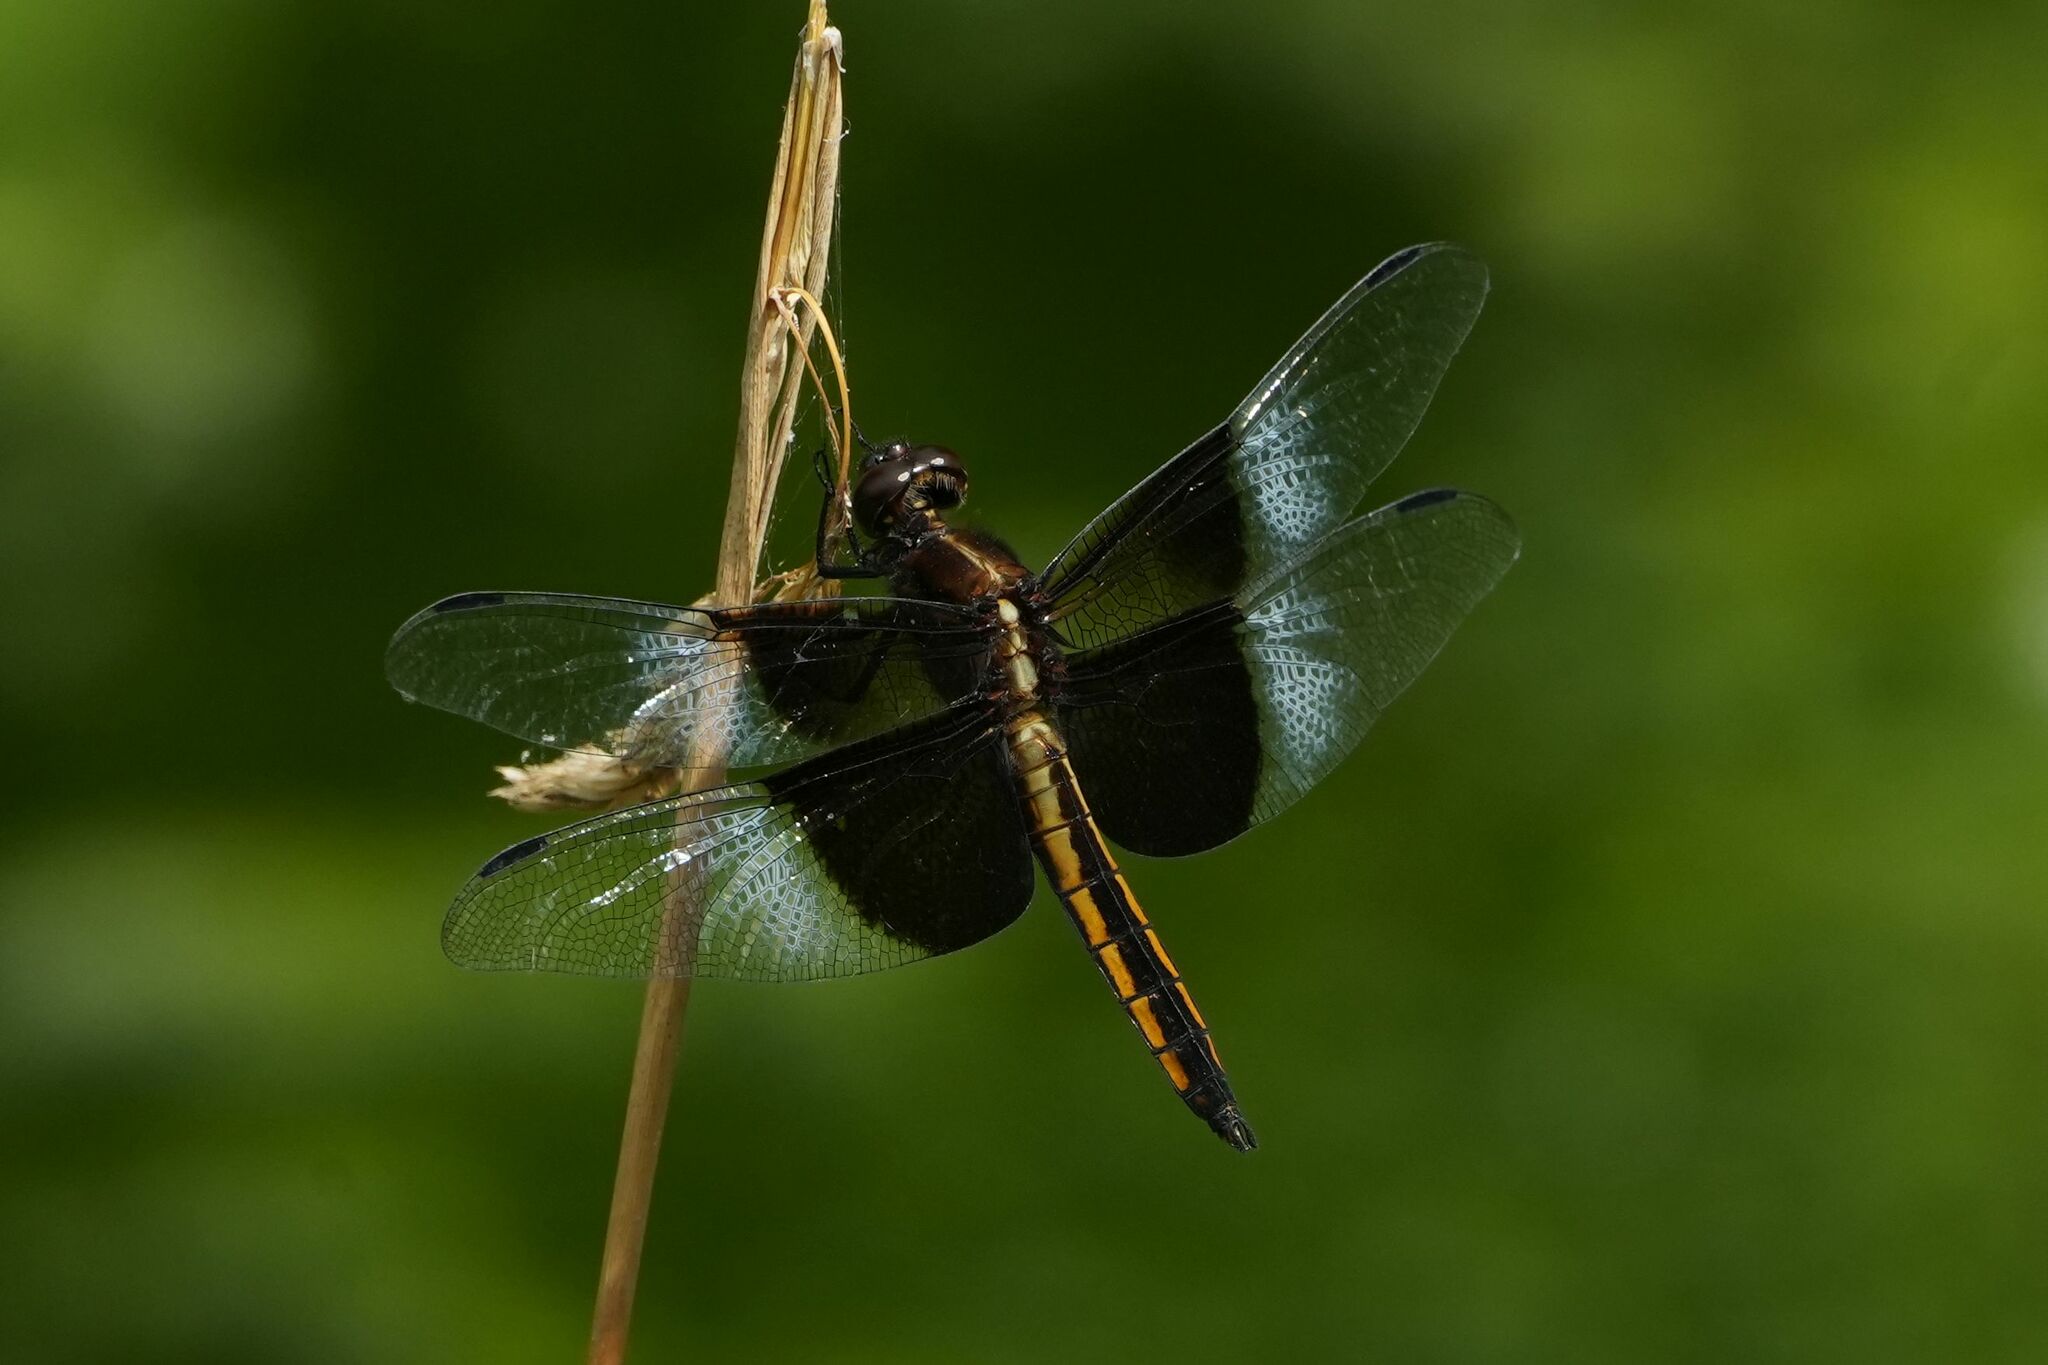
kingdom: Animalia
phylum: Arthropoda
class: Insecta
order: Odonata
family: Libellulidae
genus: Libellula
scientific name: Libellula luctuosa
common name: Widow skimmer
